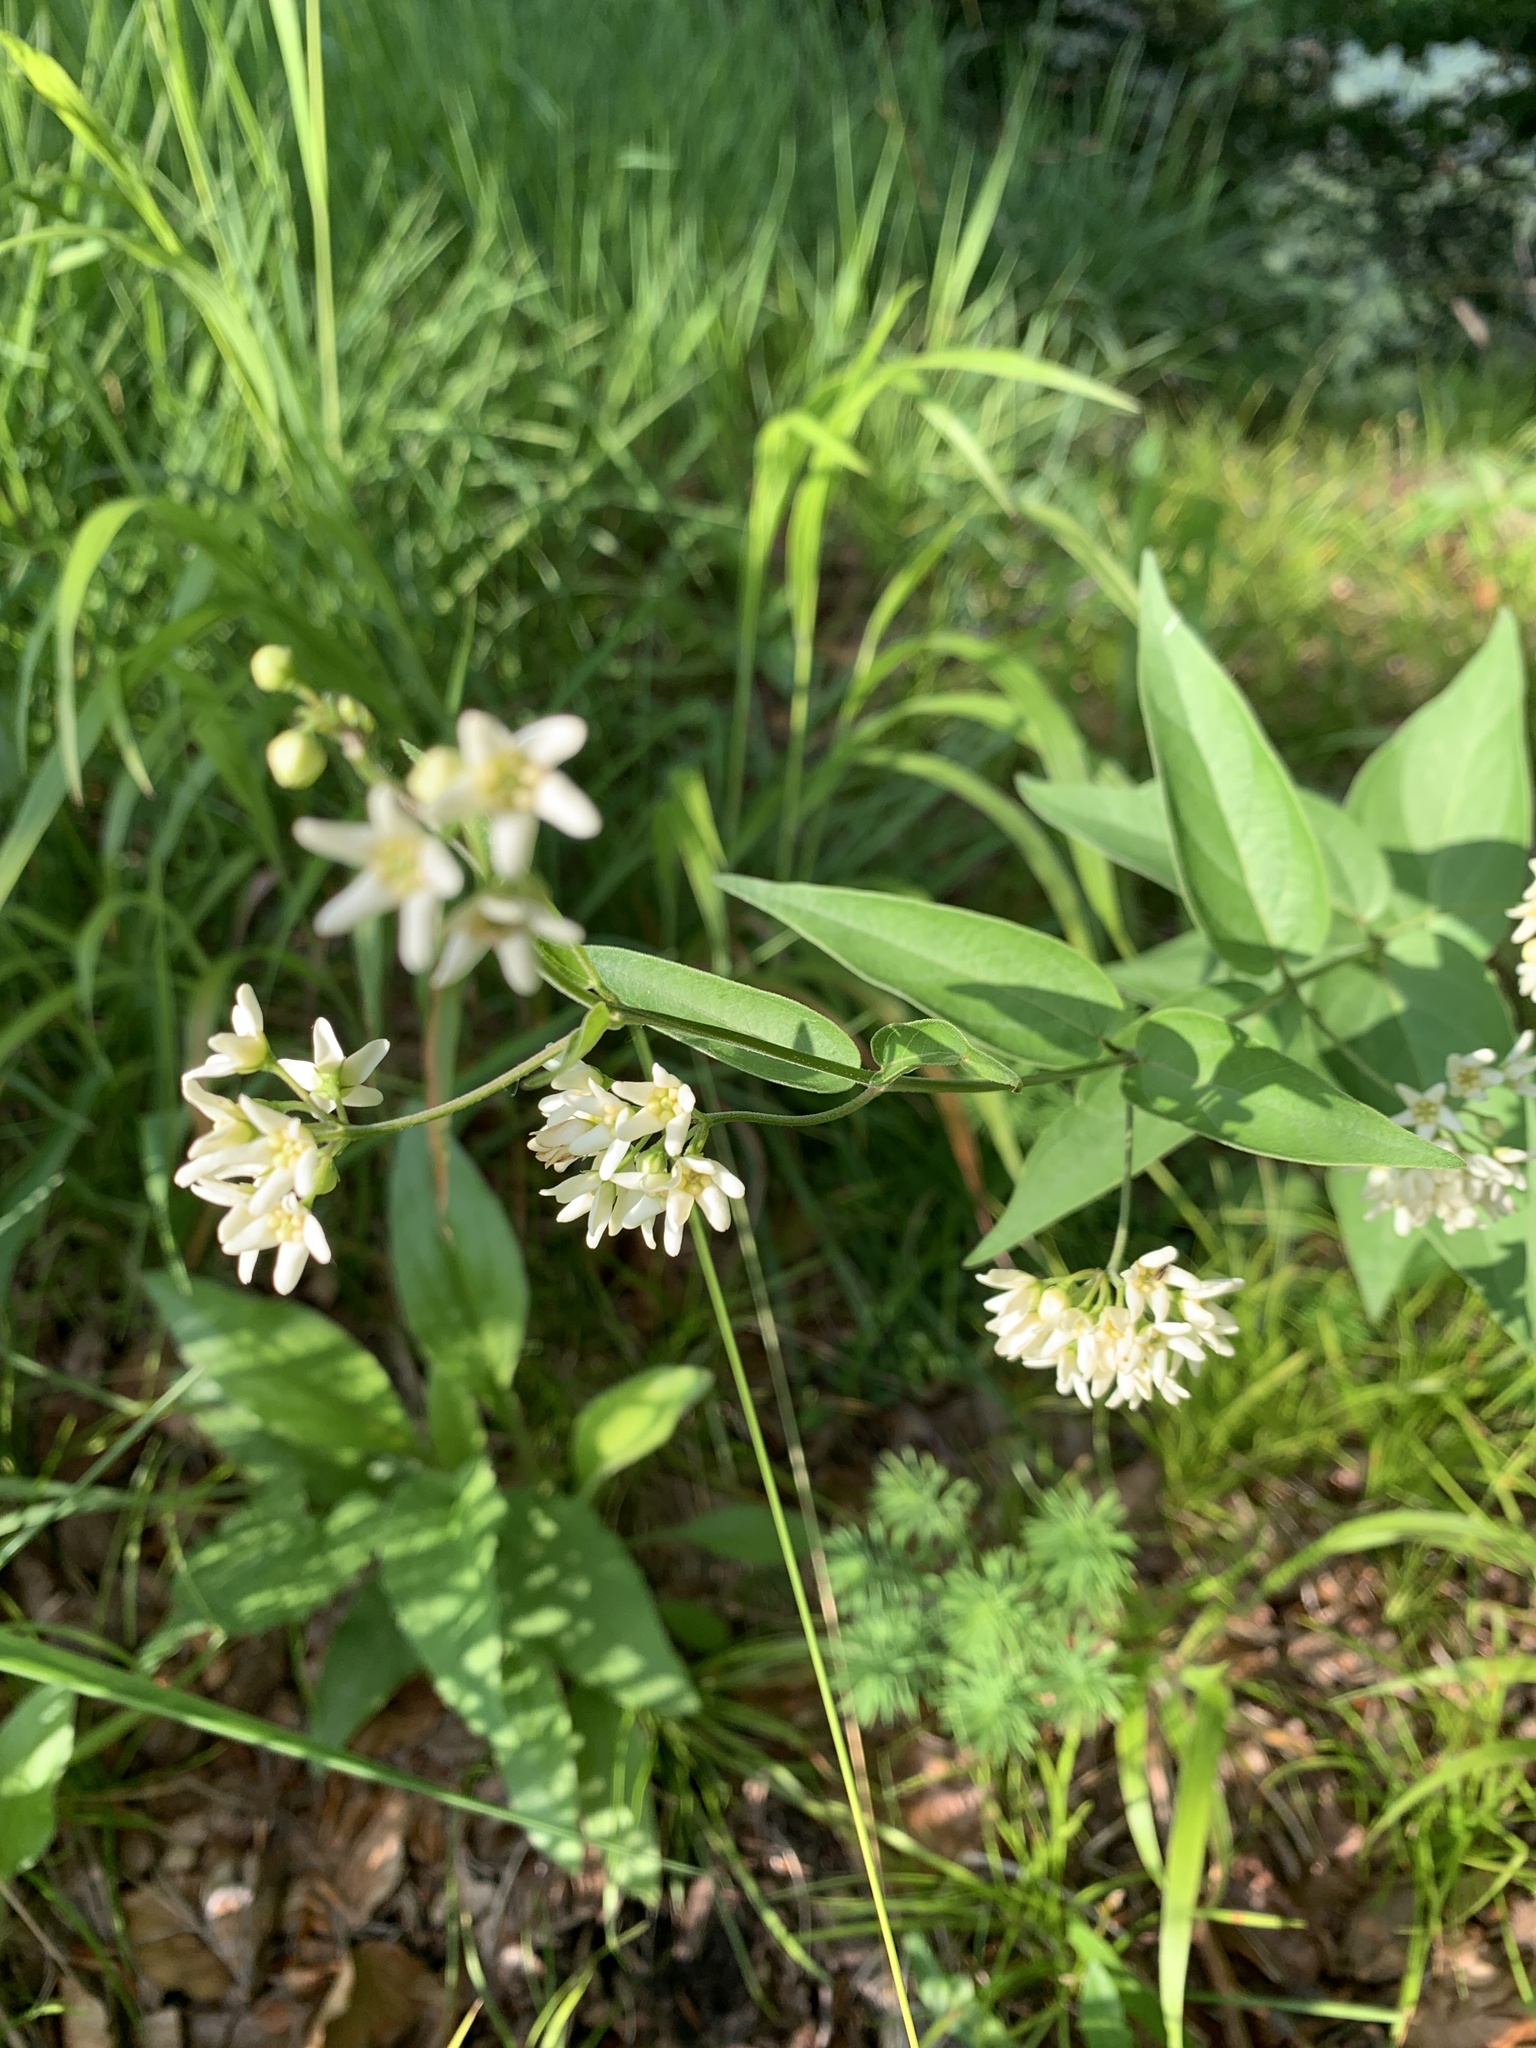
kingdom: Plantae
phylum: Tracheophyta
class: Magnoliopsida
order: Gentianales
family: Apocynaceae
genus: Vincetoxicum
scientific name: Vincetoxicum hirundinaria
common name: White swallowwort
